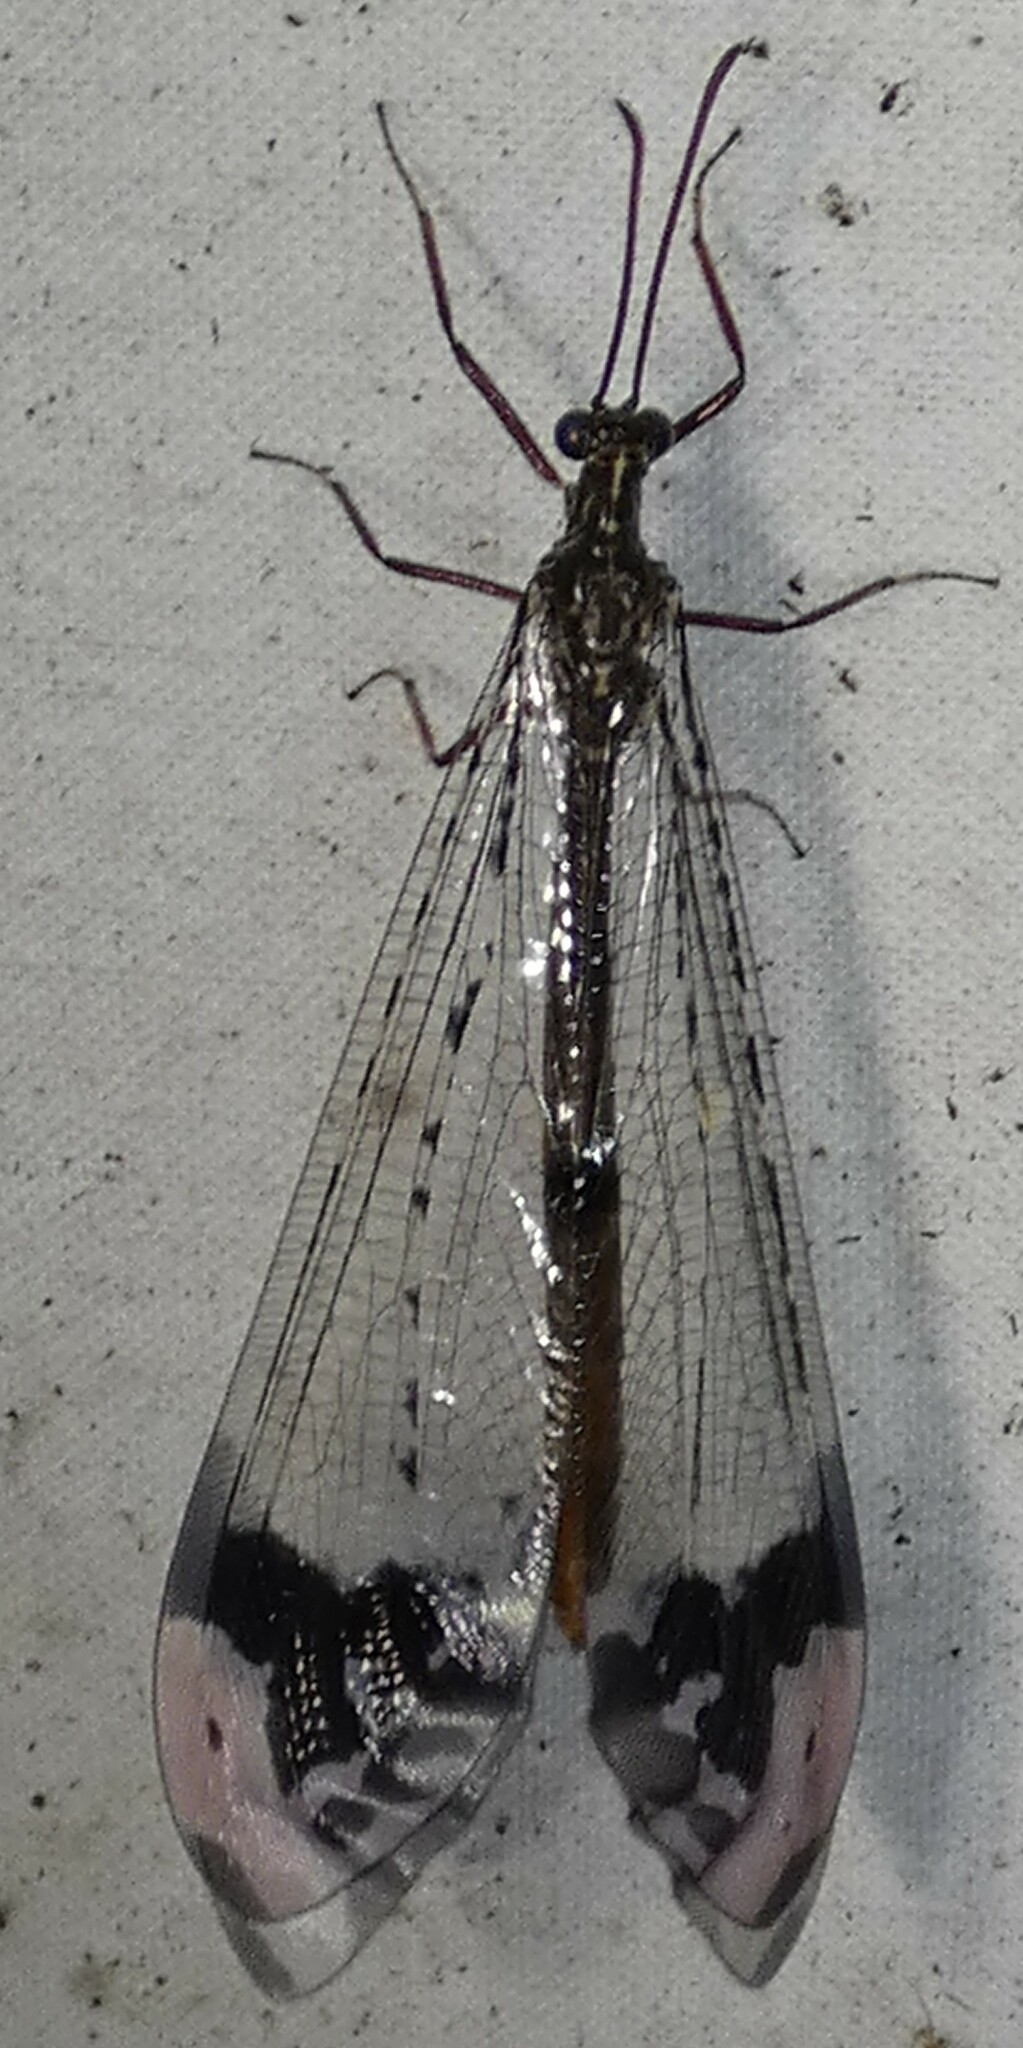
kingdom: Animalia
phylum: Arthropoda
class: Insecta
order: Neuroptera
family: Myrmeleontidae
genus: Glenurus
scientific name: Glenurus gratus
